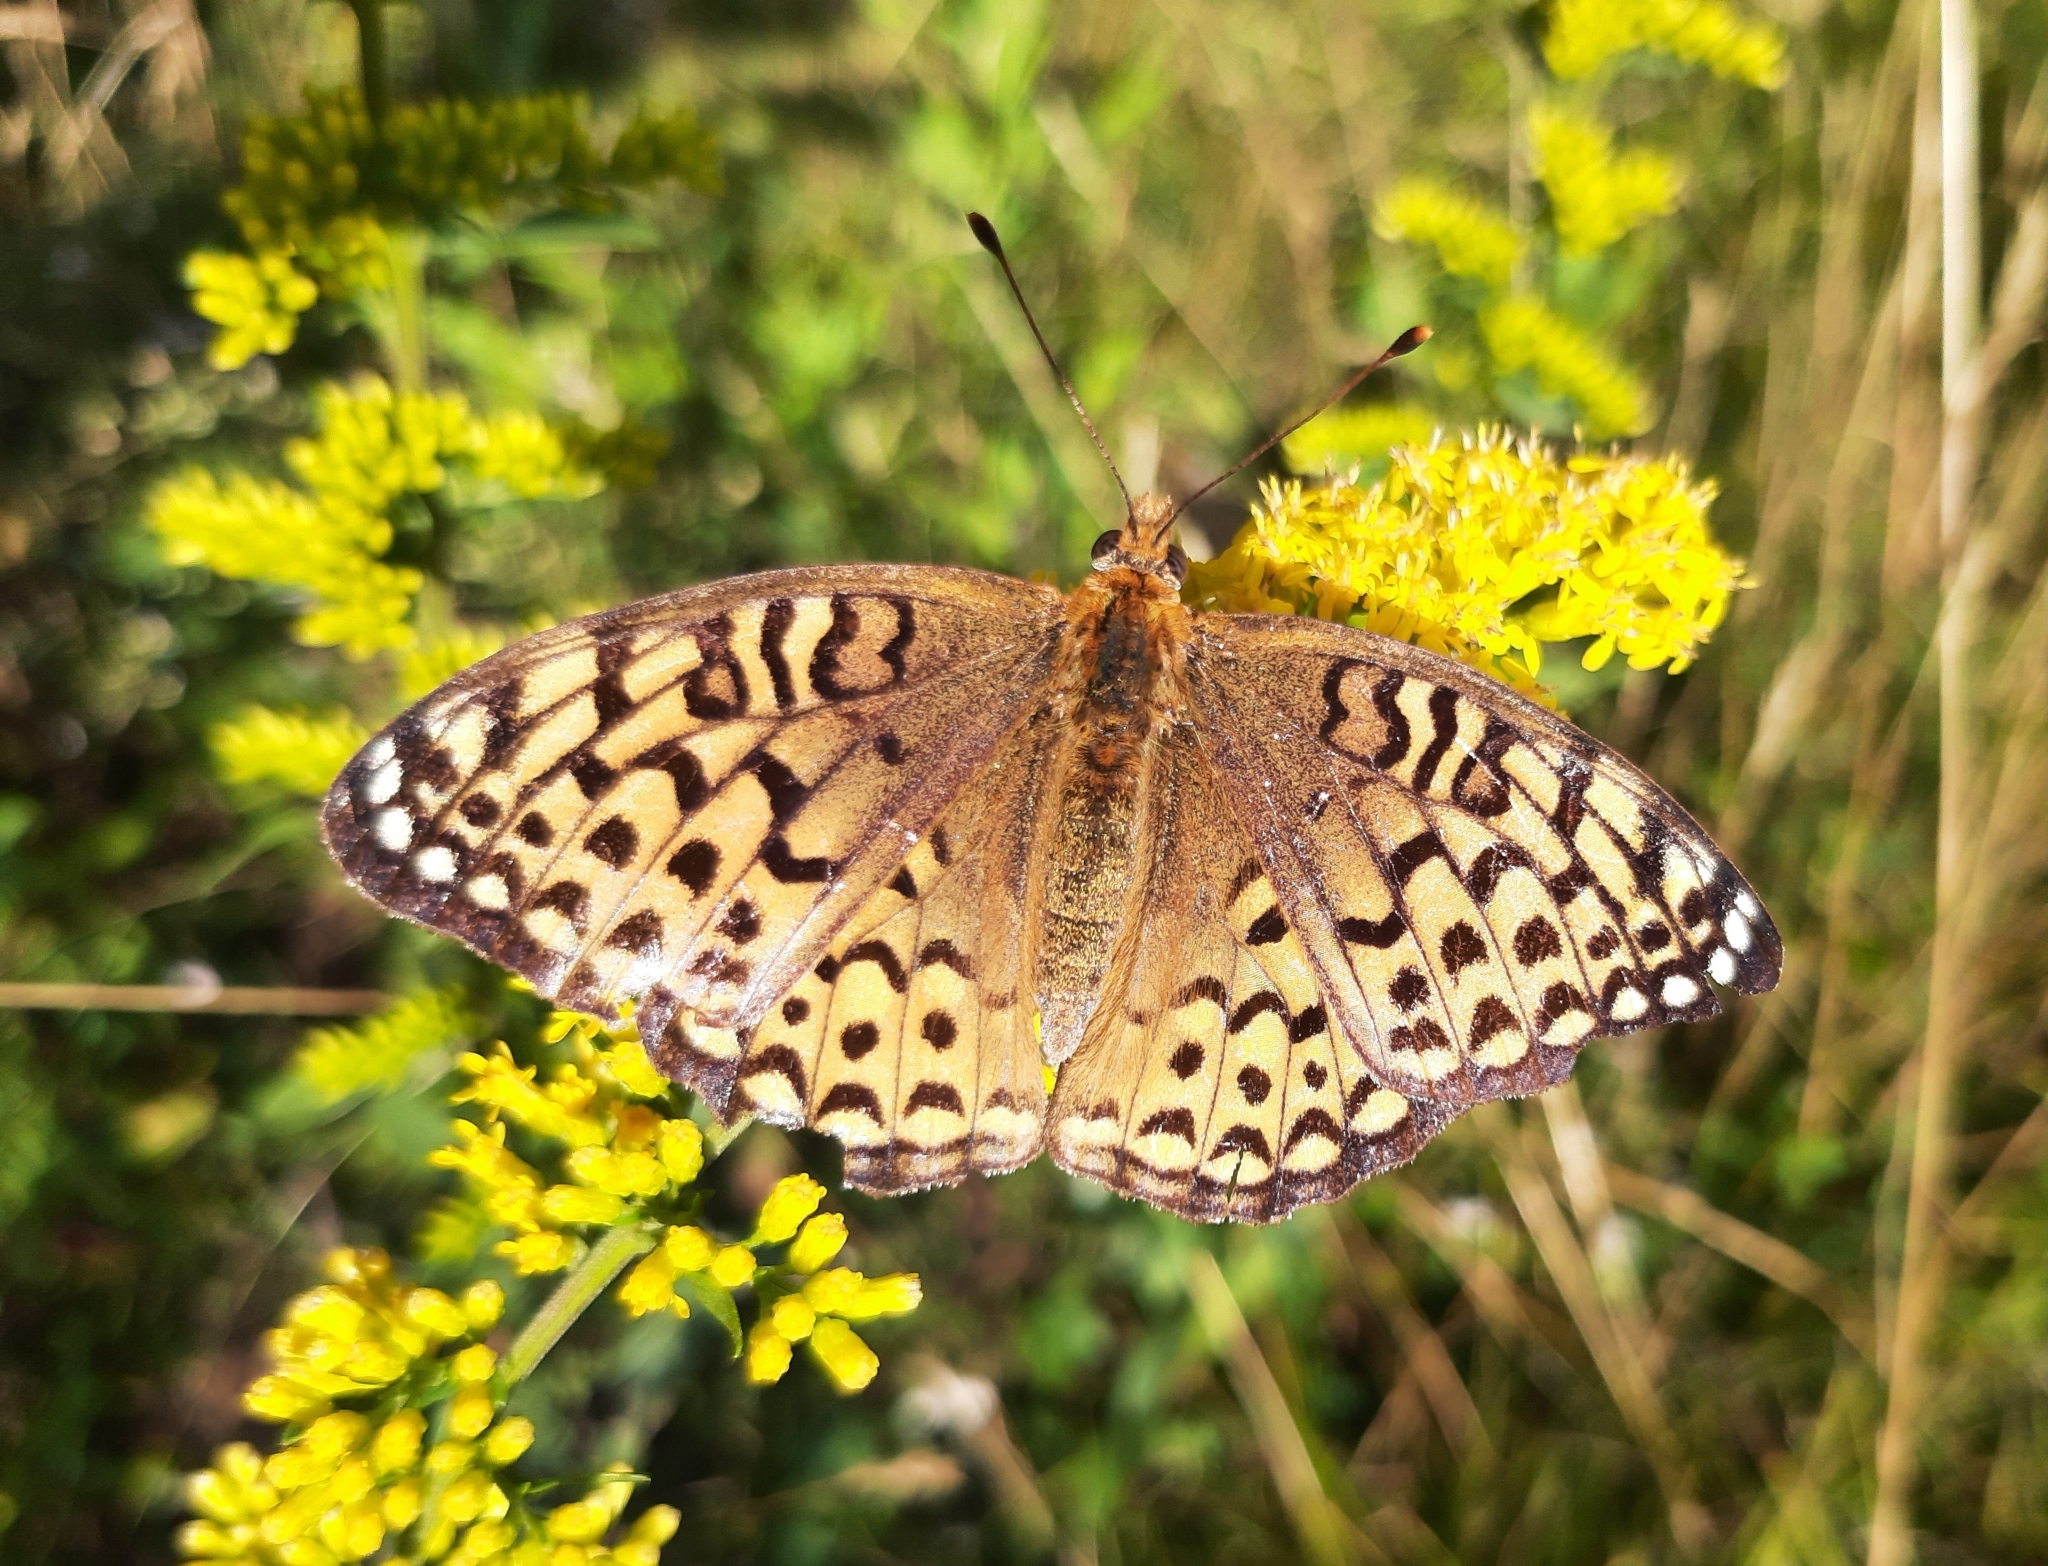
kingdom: Animalia
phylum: Arthropoda
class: Insecta
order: Lepidoptera
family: Nymphalidae
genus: Speyeria
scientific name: Speyeria atlantis
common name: Atlantis fritillary
